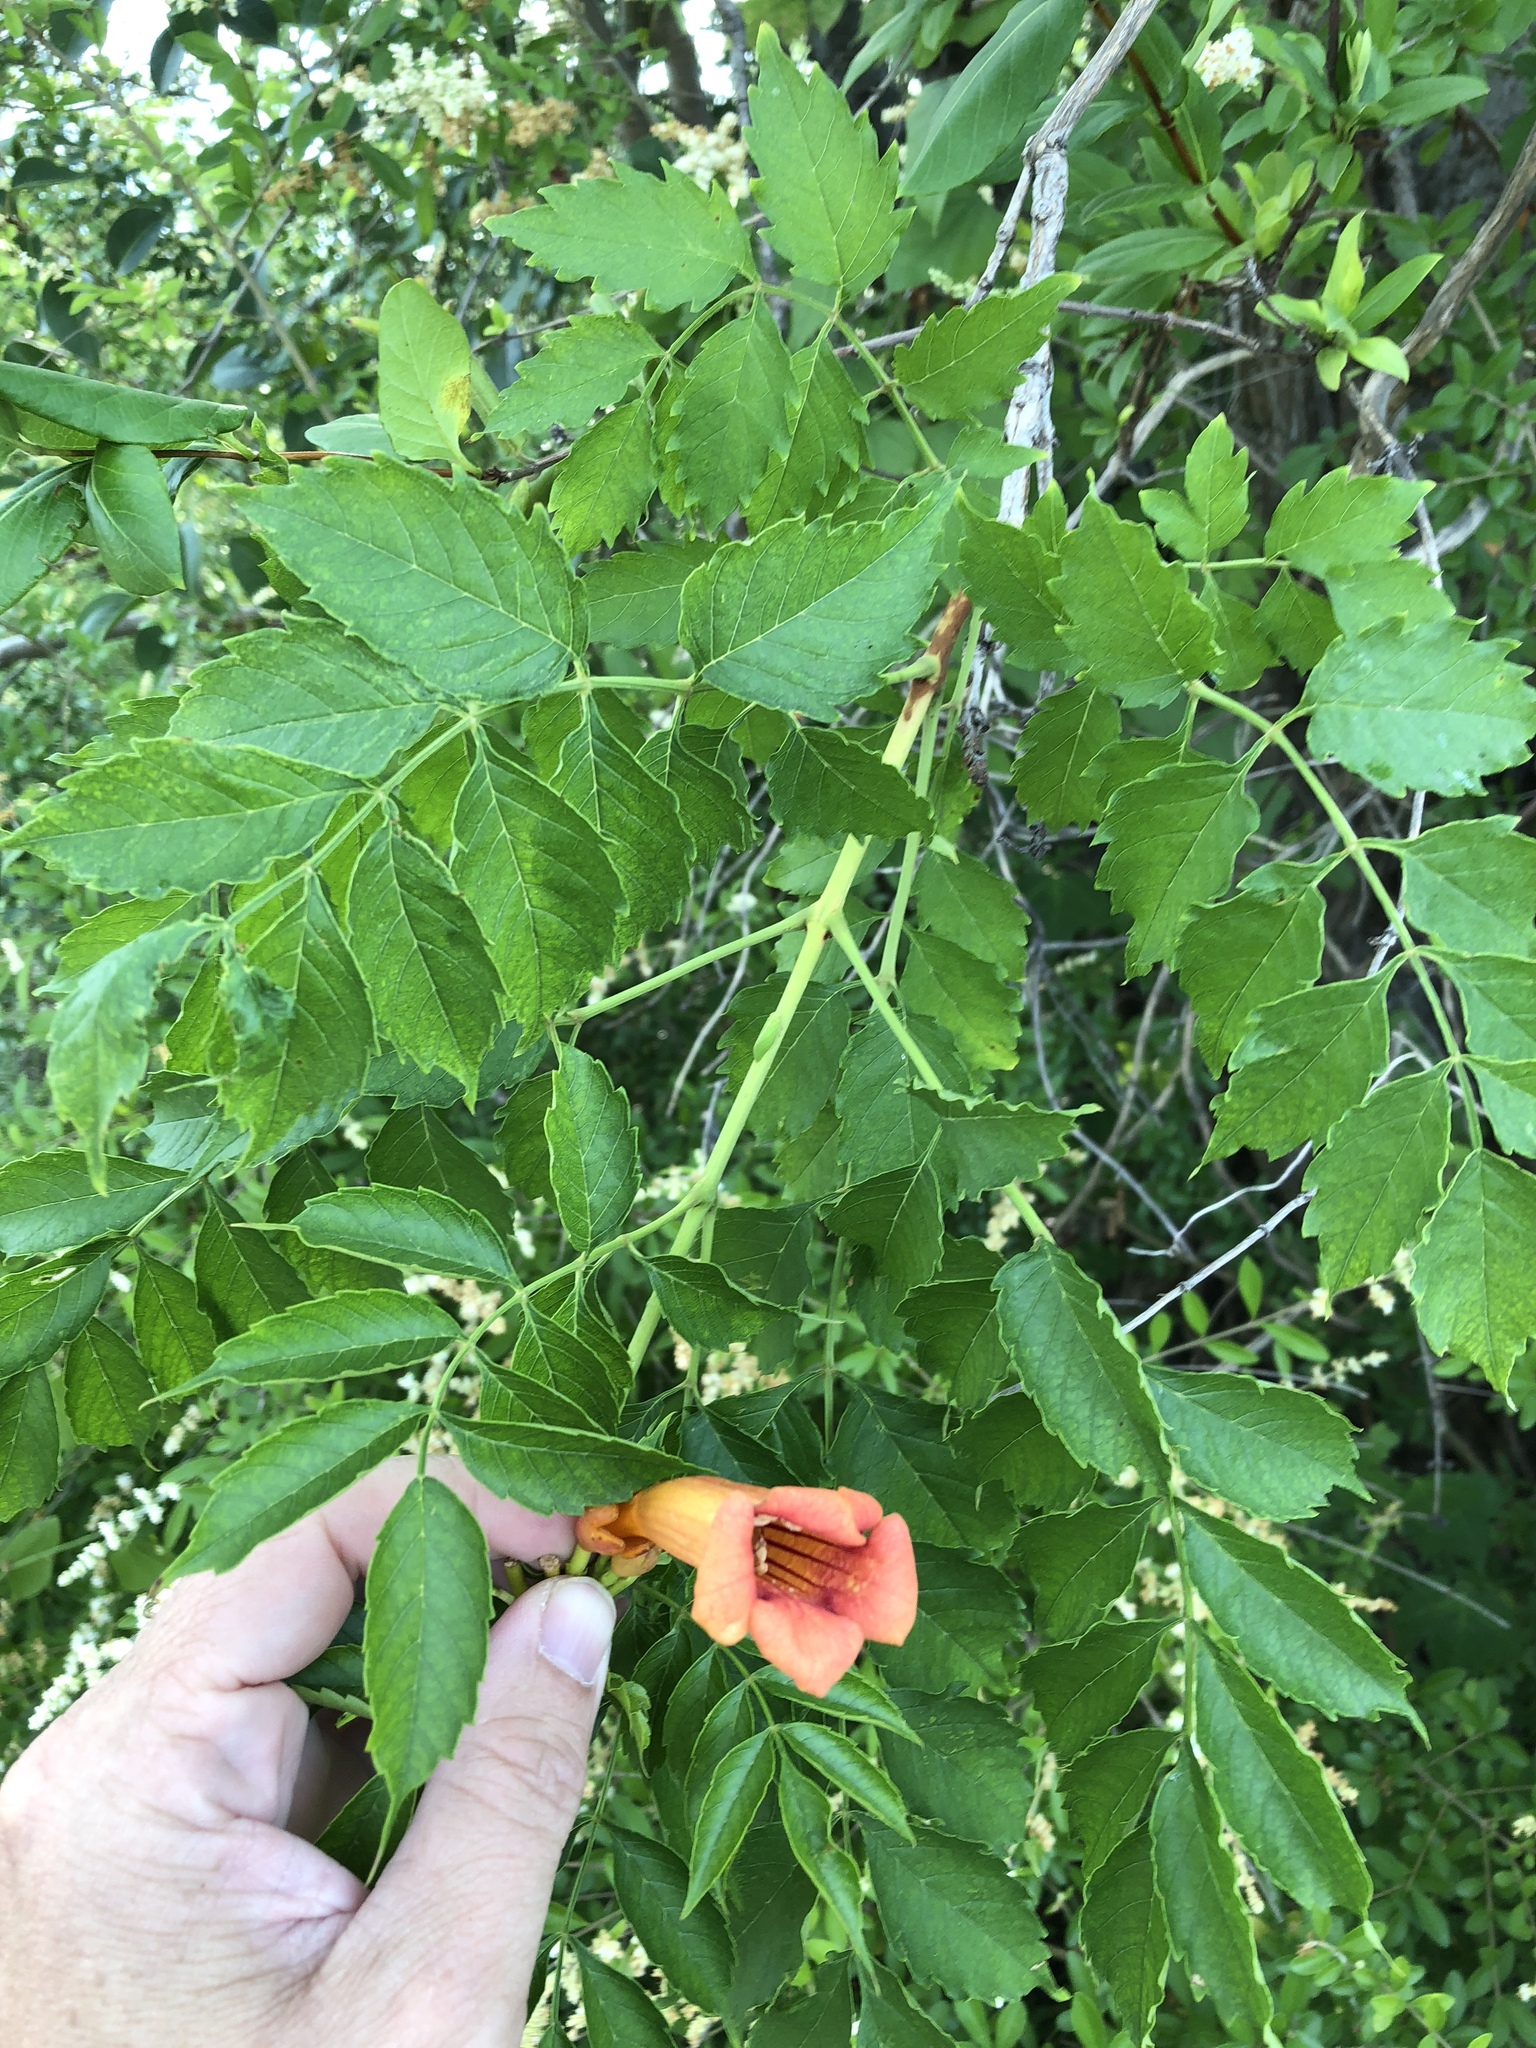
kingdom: Plantae
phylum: Tracheophyta
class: Magnoliopsida
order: Lamiales
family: Bignoniaceae
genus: Campsis
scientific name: Campsis radicans
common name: Trumpet-creeper
